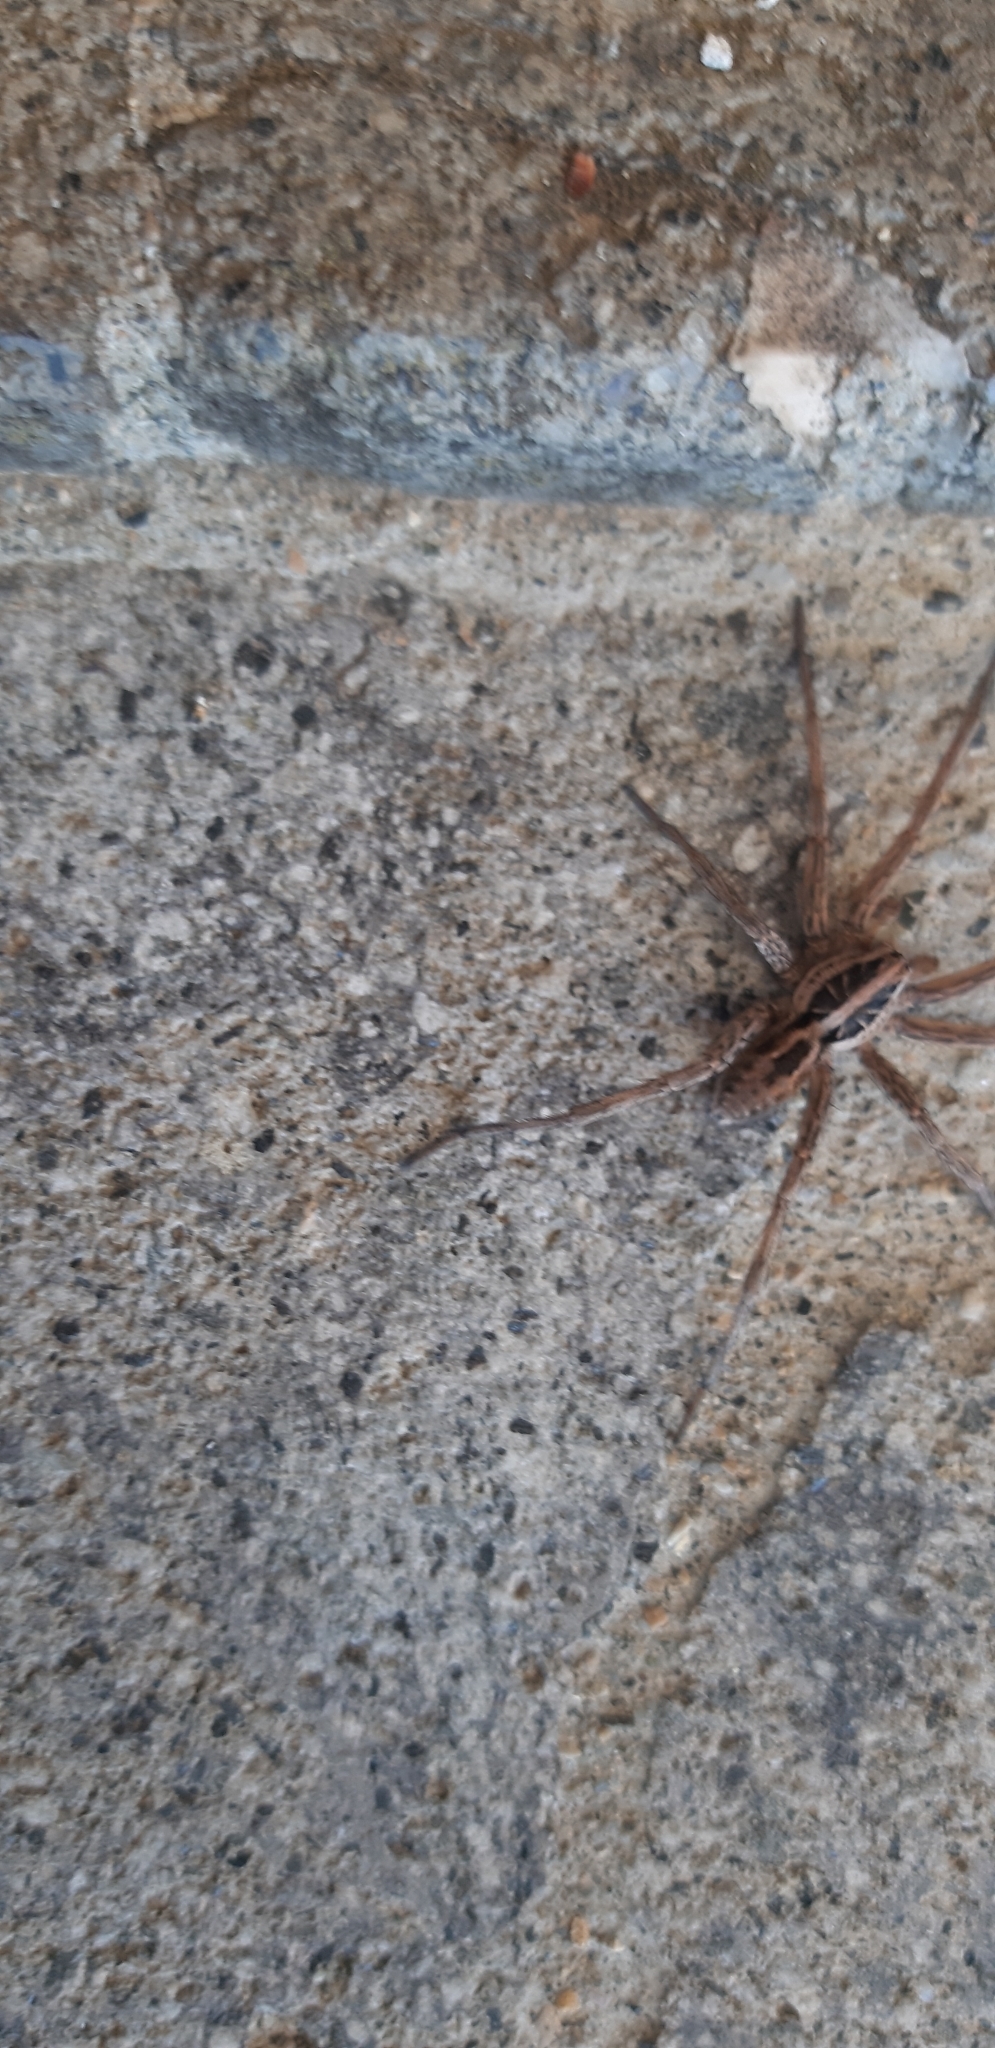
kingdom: Animalia
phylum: Arthropoda
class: Arachnida
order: Araneae
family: Lycosidae
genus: Hogna
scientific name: Hogna radiata
